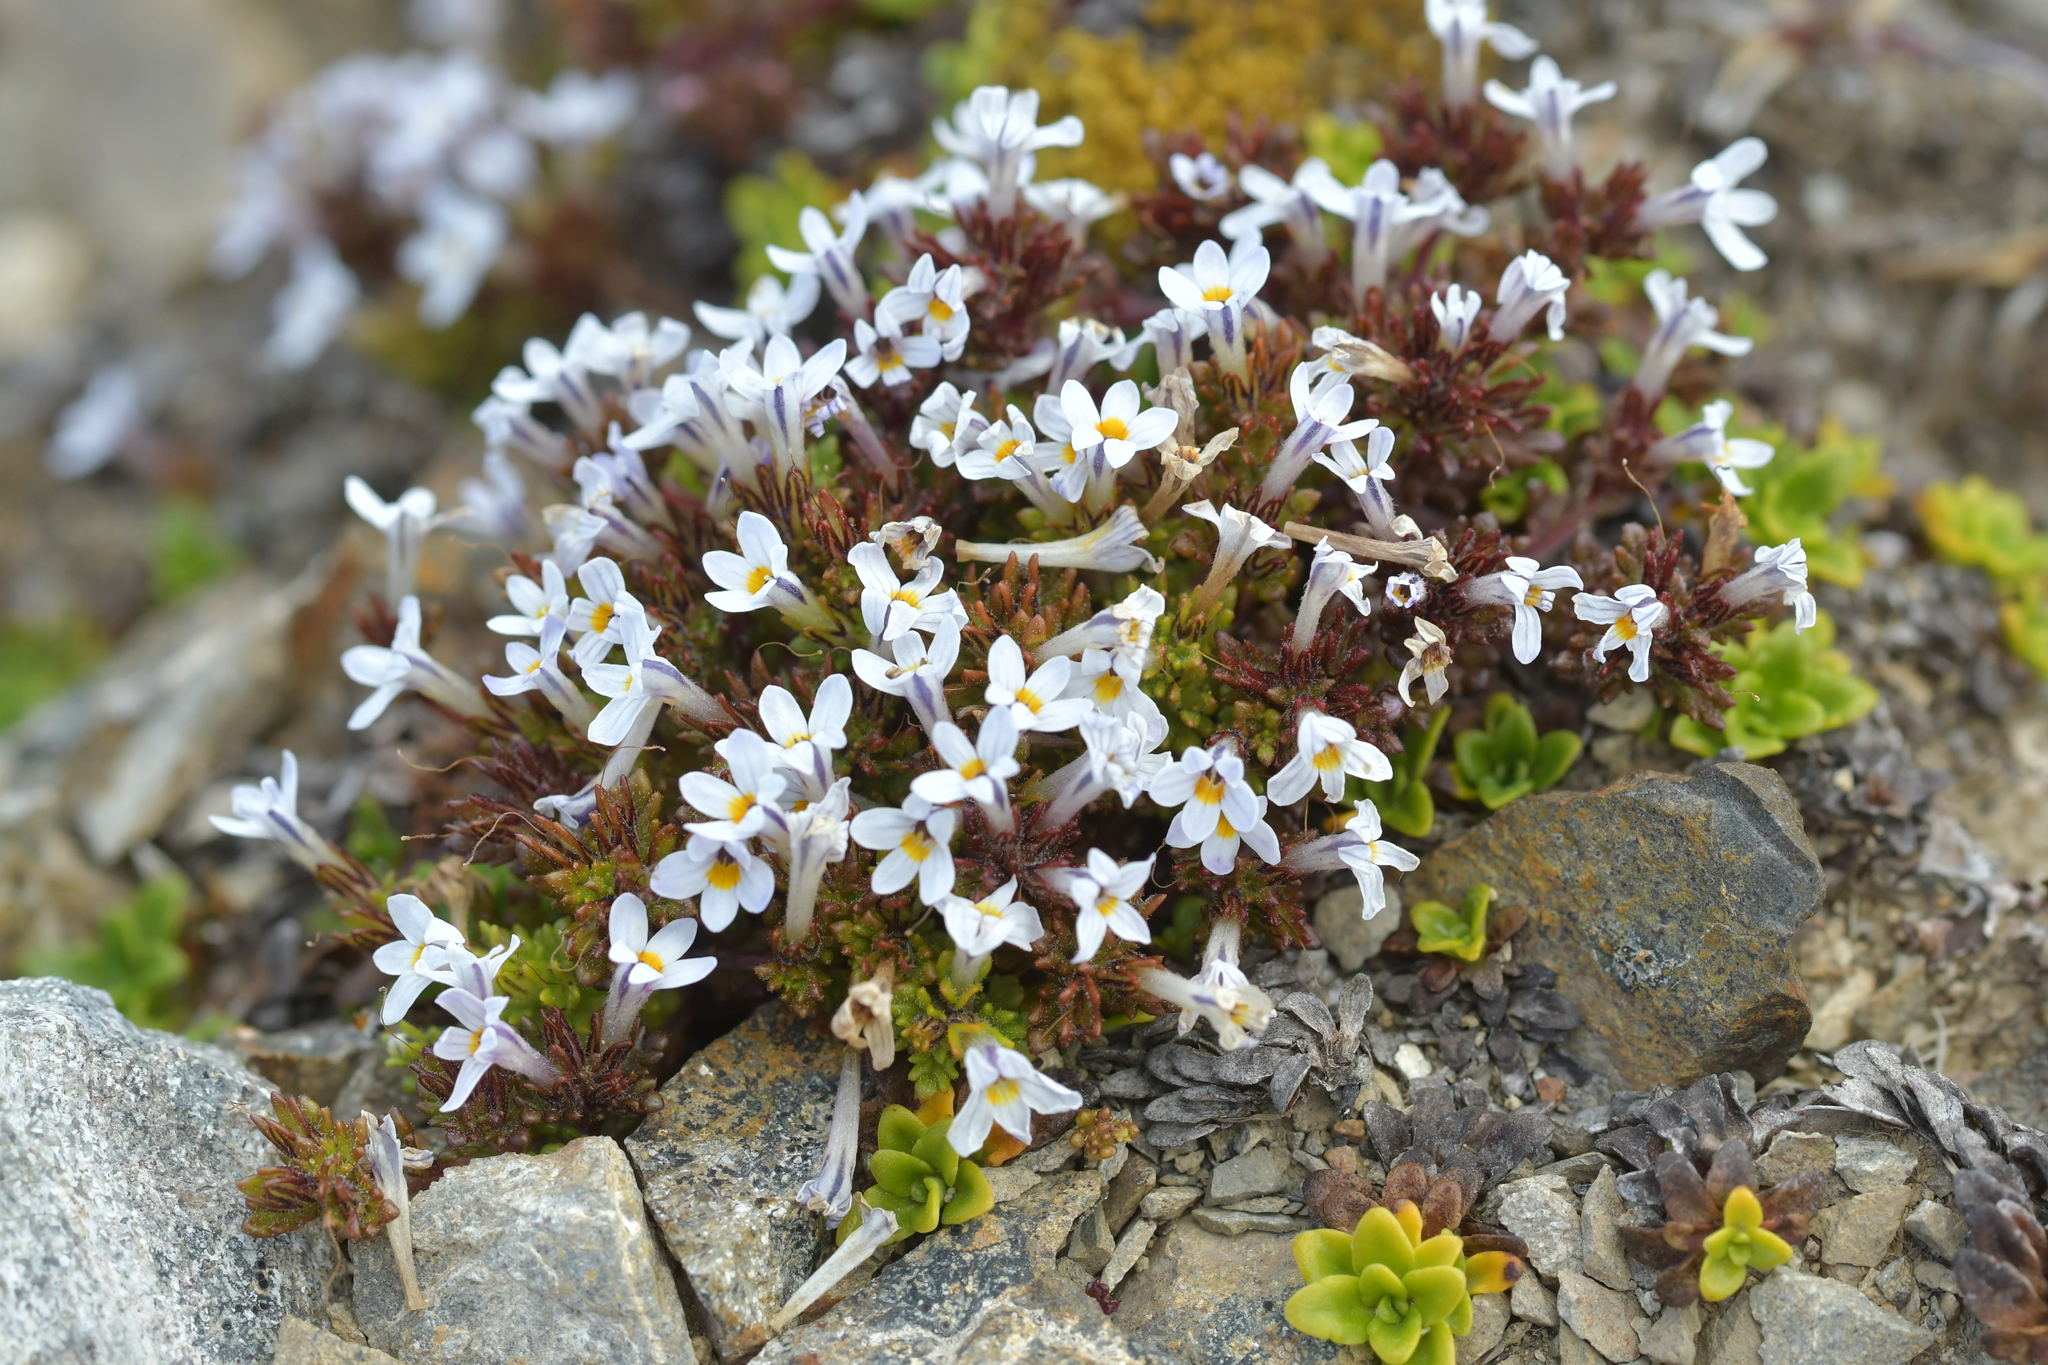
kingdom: Plantae
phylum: Tracheophyta
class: Magnoliopsida
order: Lamiales
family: Orobanchaceae
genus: Euphrasia
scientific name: Euphrasia zelandica
